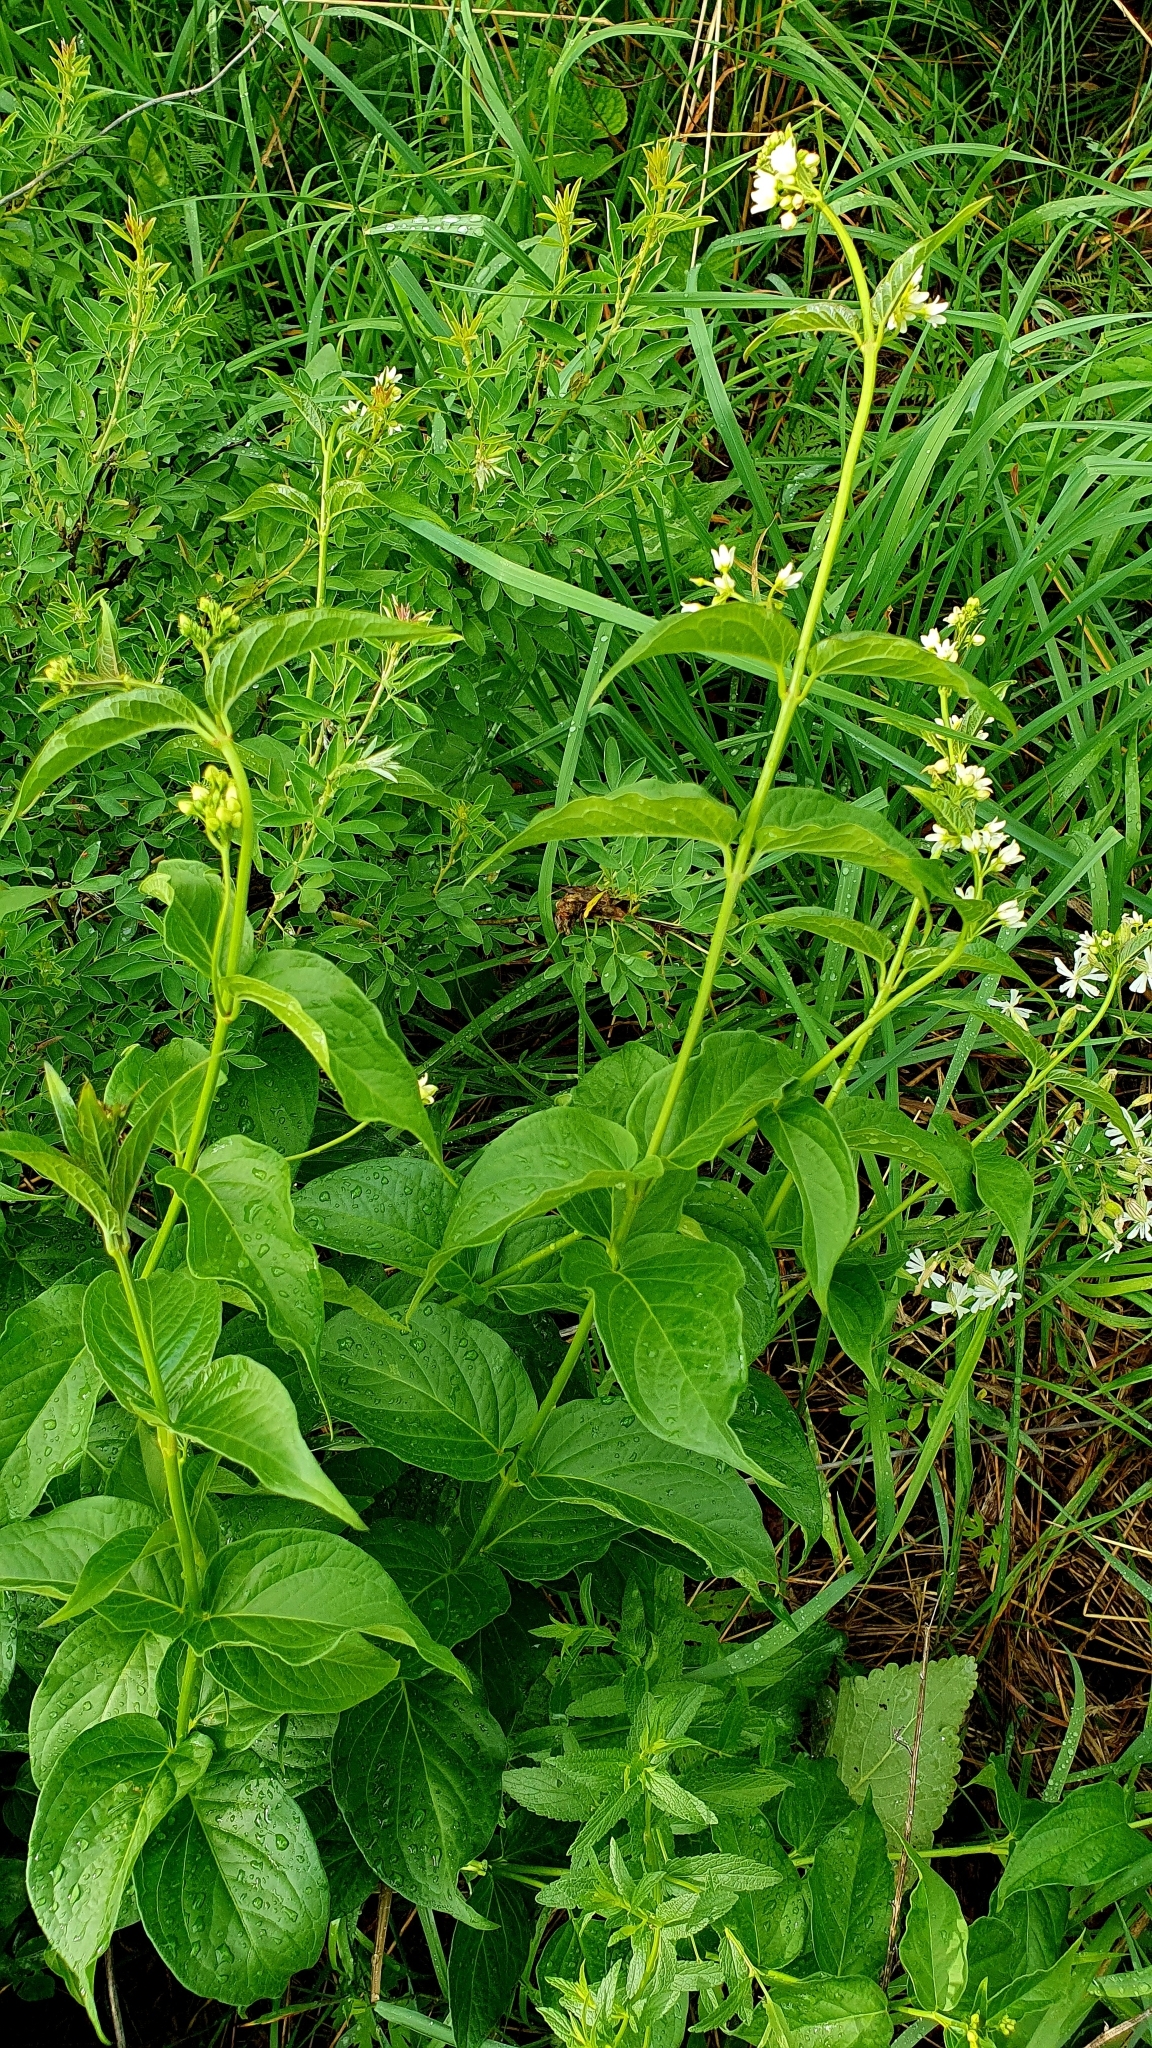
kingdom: Plantae
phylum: Tracheophyta
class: Magnoliopsida
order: Gentianales
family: Apocynaceae
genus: Vincetoxicum
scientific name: Vincetoxicum hirundinaria
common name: White swallowwort
